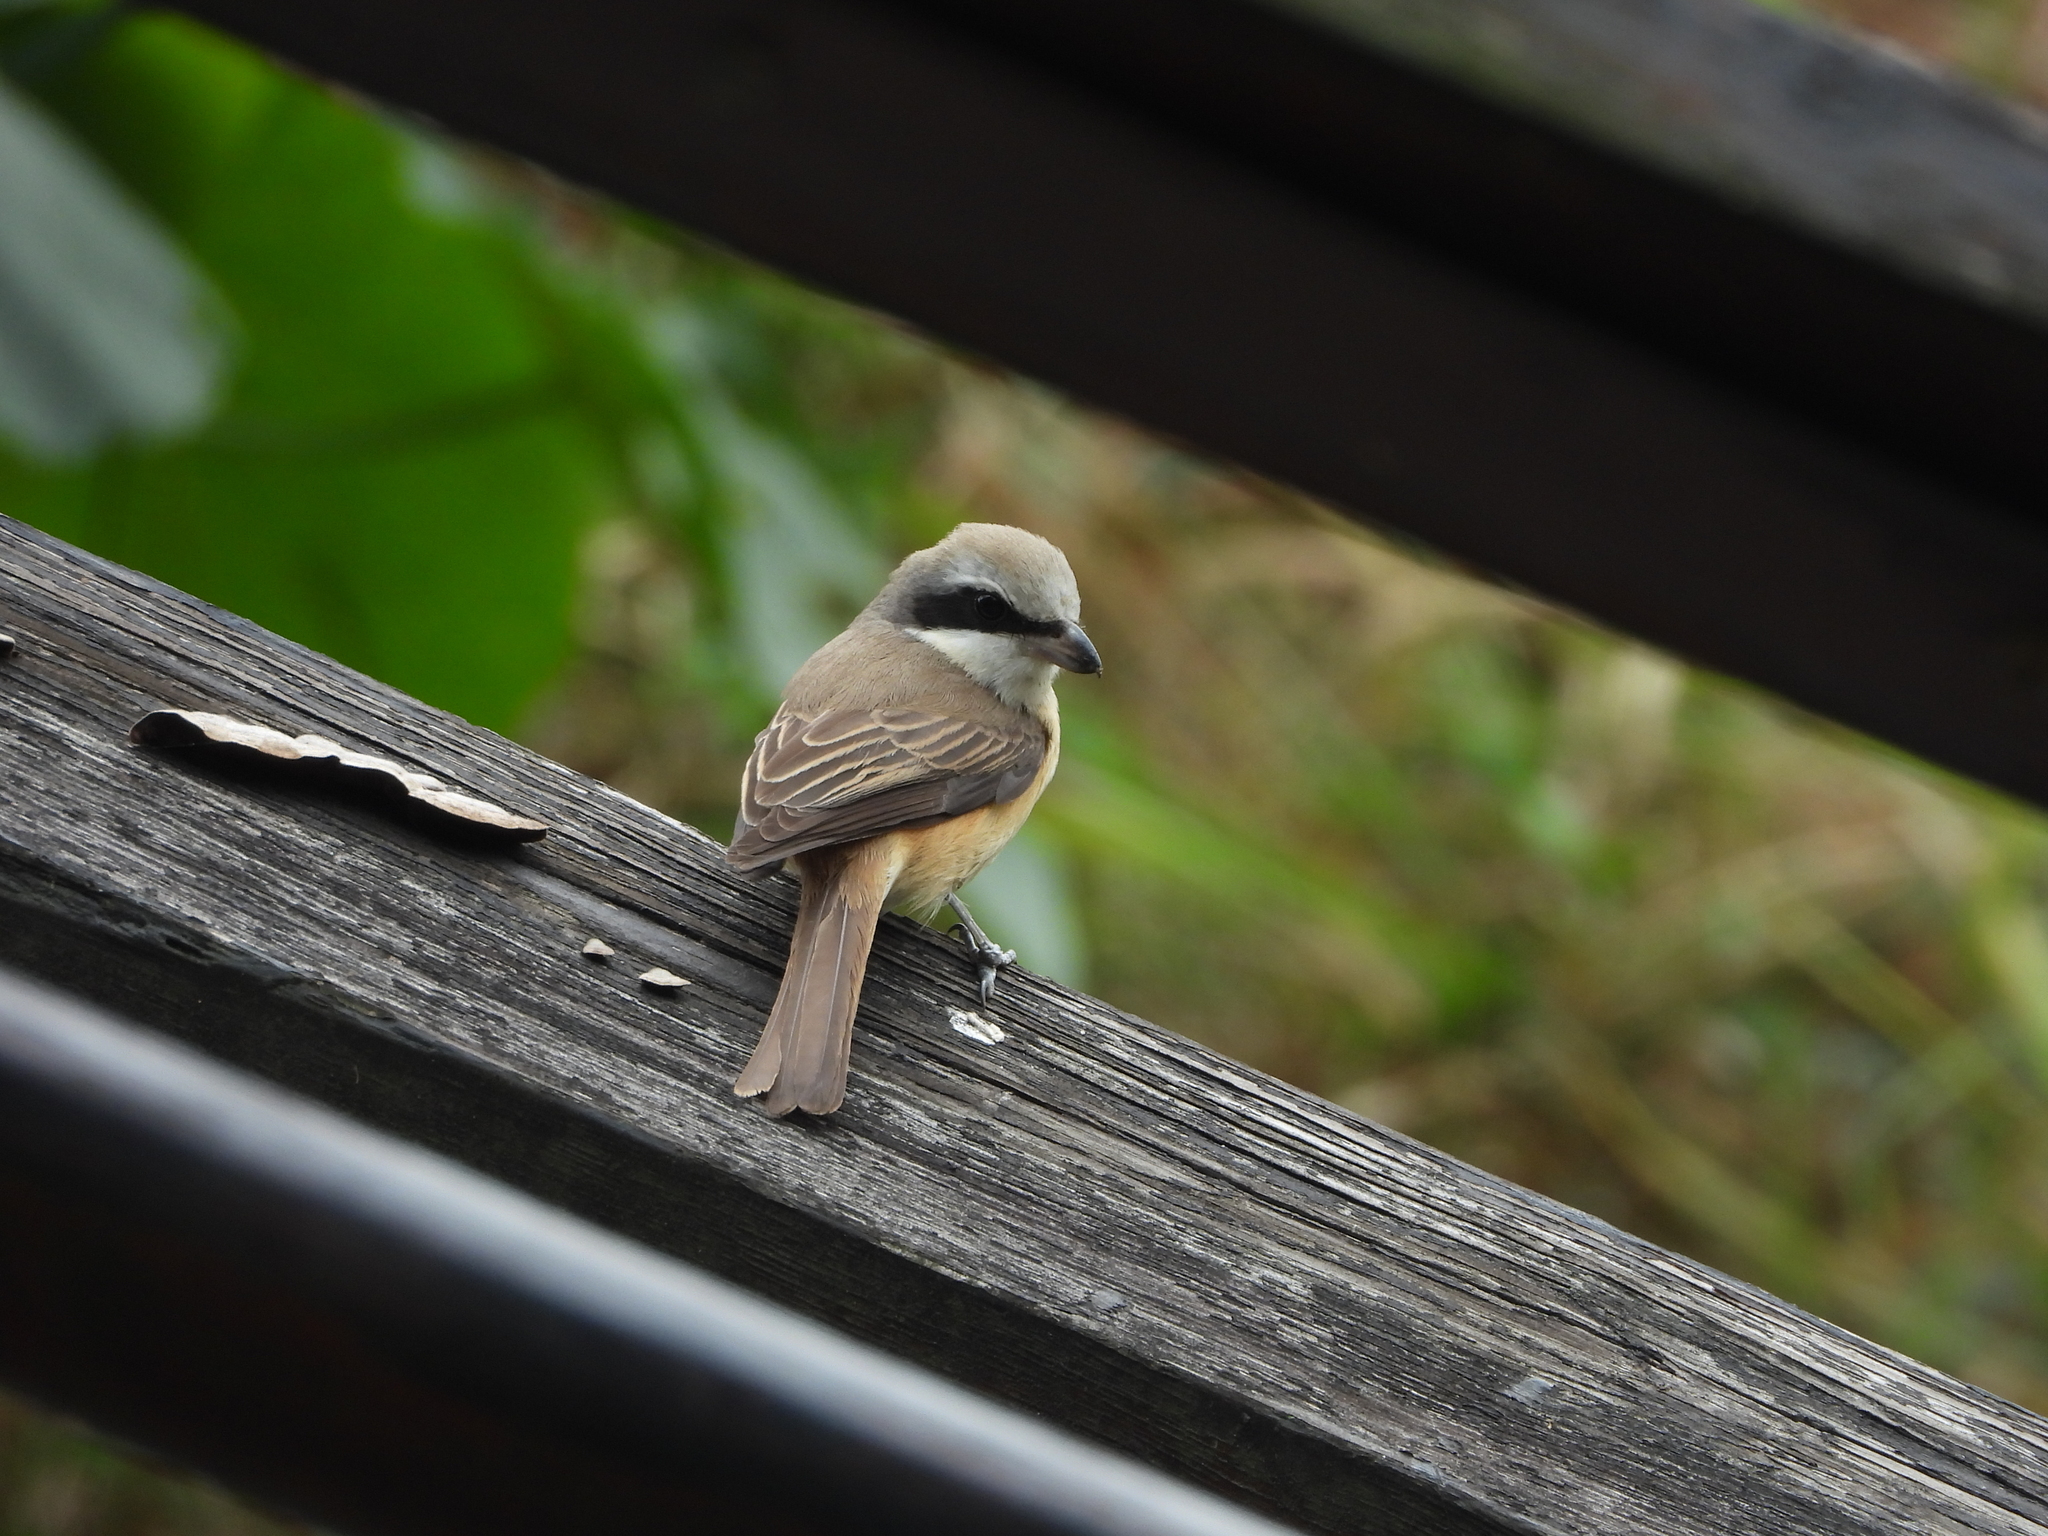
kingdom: Animalia
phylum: Chordata
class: Aves
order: Passeriformes
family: Laniidae
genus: Lanius
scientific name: Lanius cristatus
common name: Brown shrike
